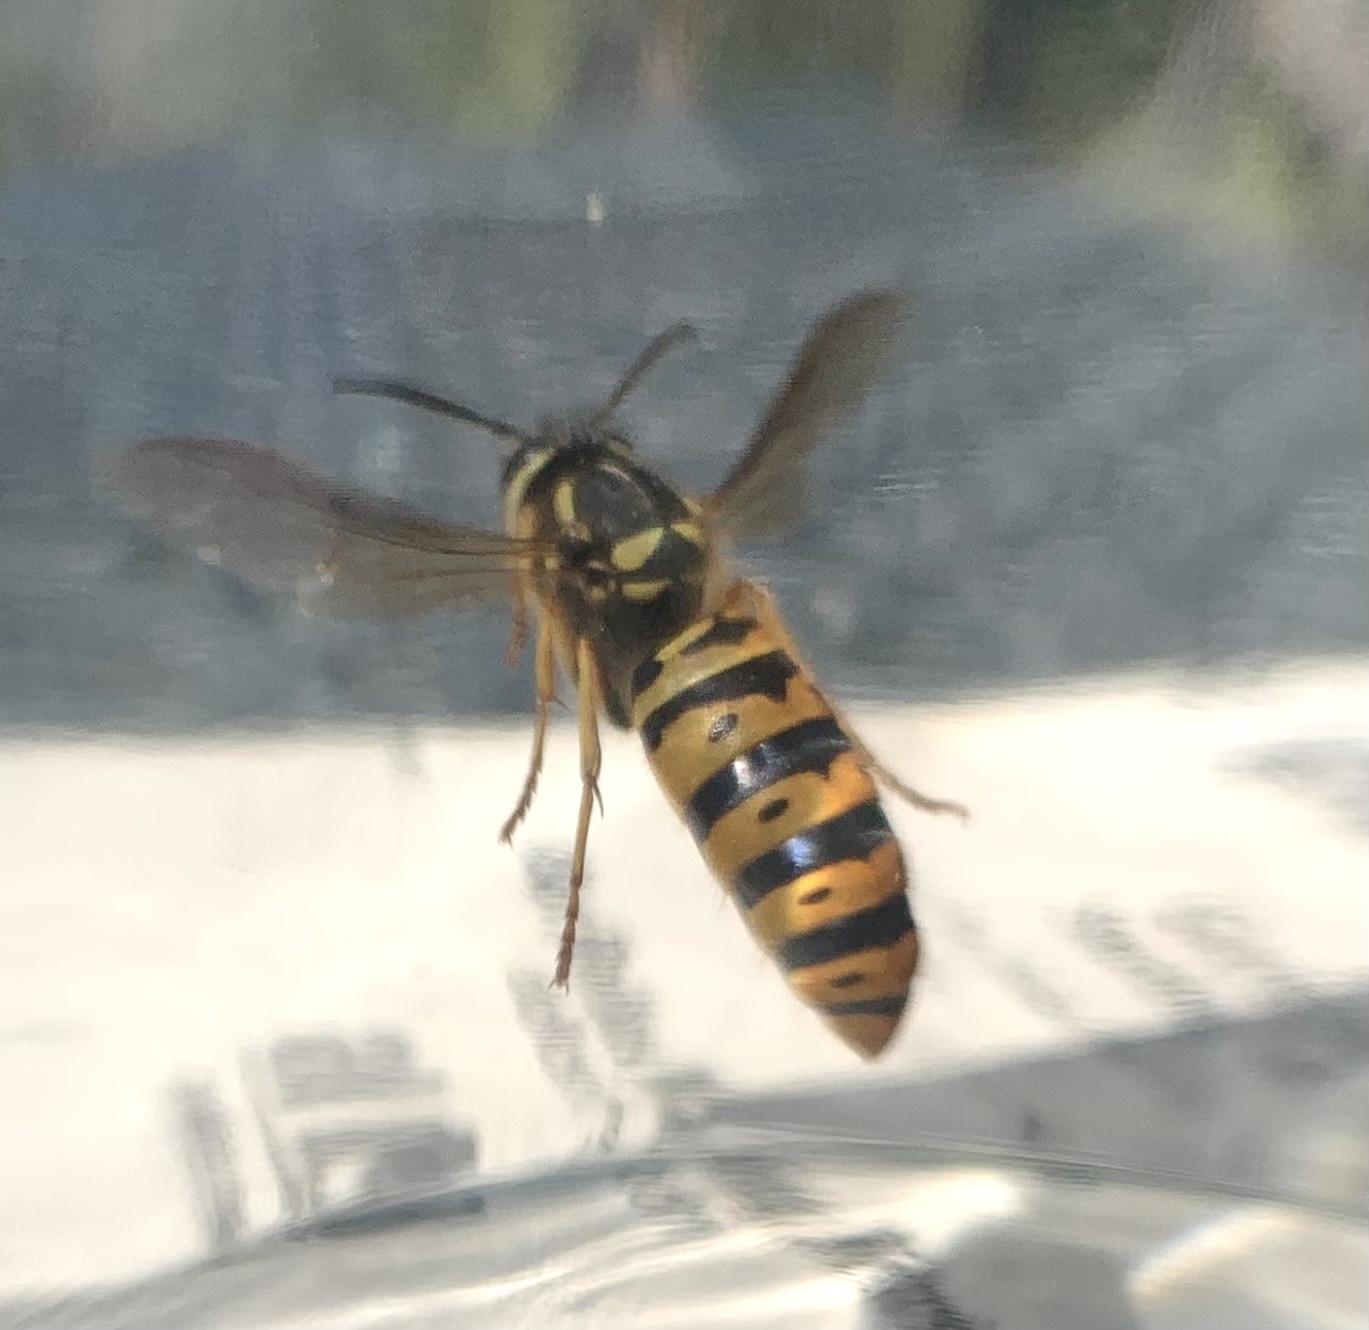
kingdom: Animalia
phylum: Arthropoda
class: Insecta
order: Hymenoptera
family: Vespidae
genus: Vespula
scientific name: Vespula maculifrons
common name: Eastern yellowjacket
